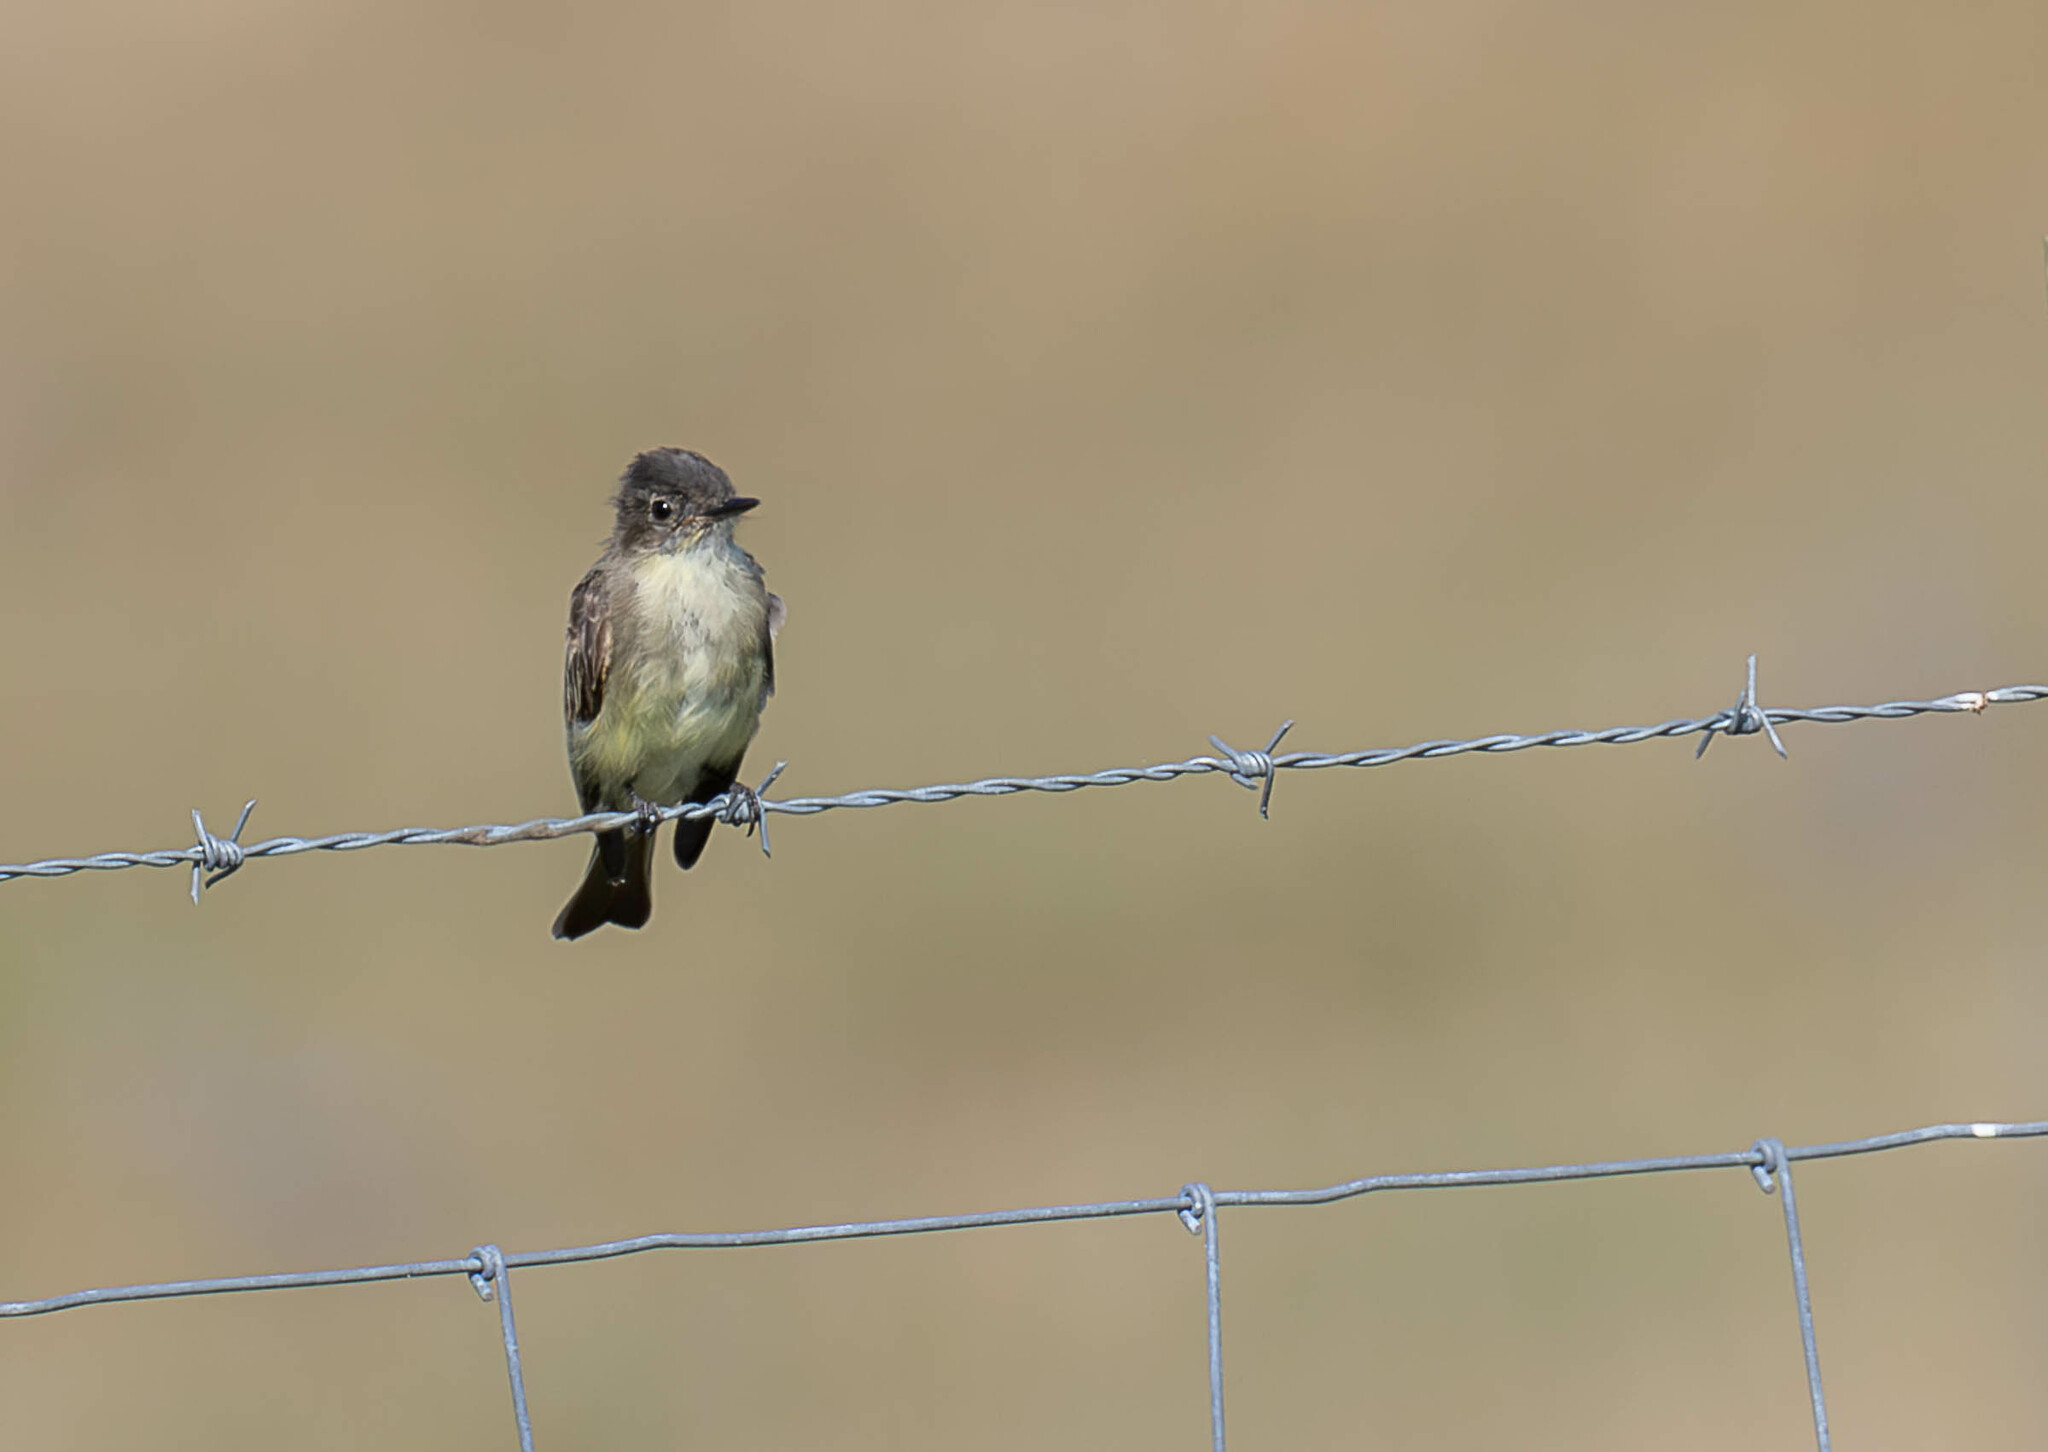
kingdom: Animalia
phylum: Chordata
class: Aves
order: Passeriformes
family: Tyrannidae
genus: Sayornis
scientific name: Sayornis phoebe
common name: Eastern phoebe
